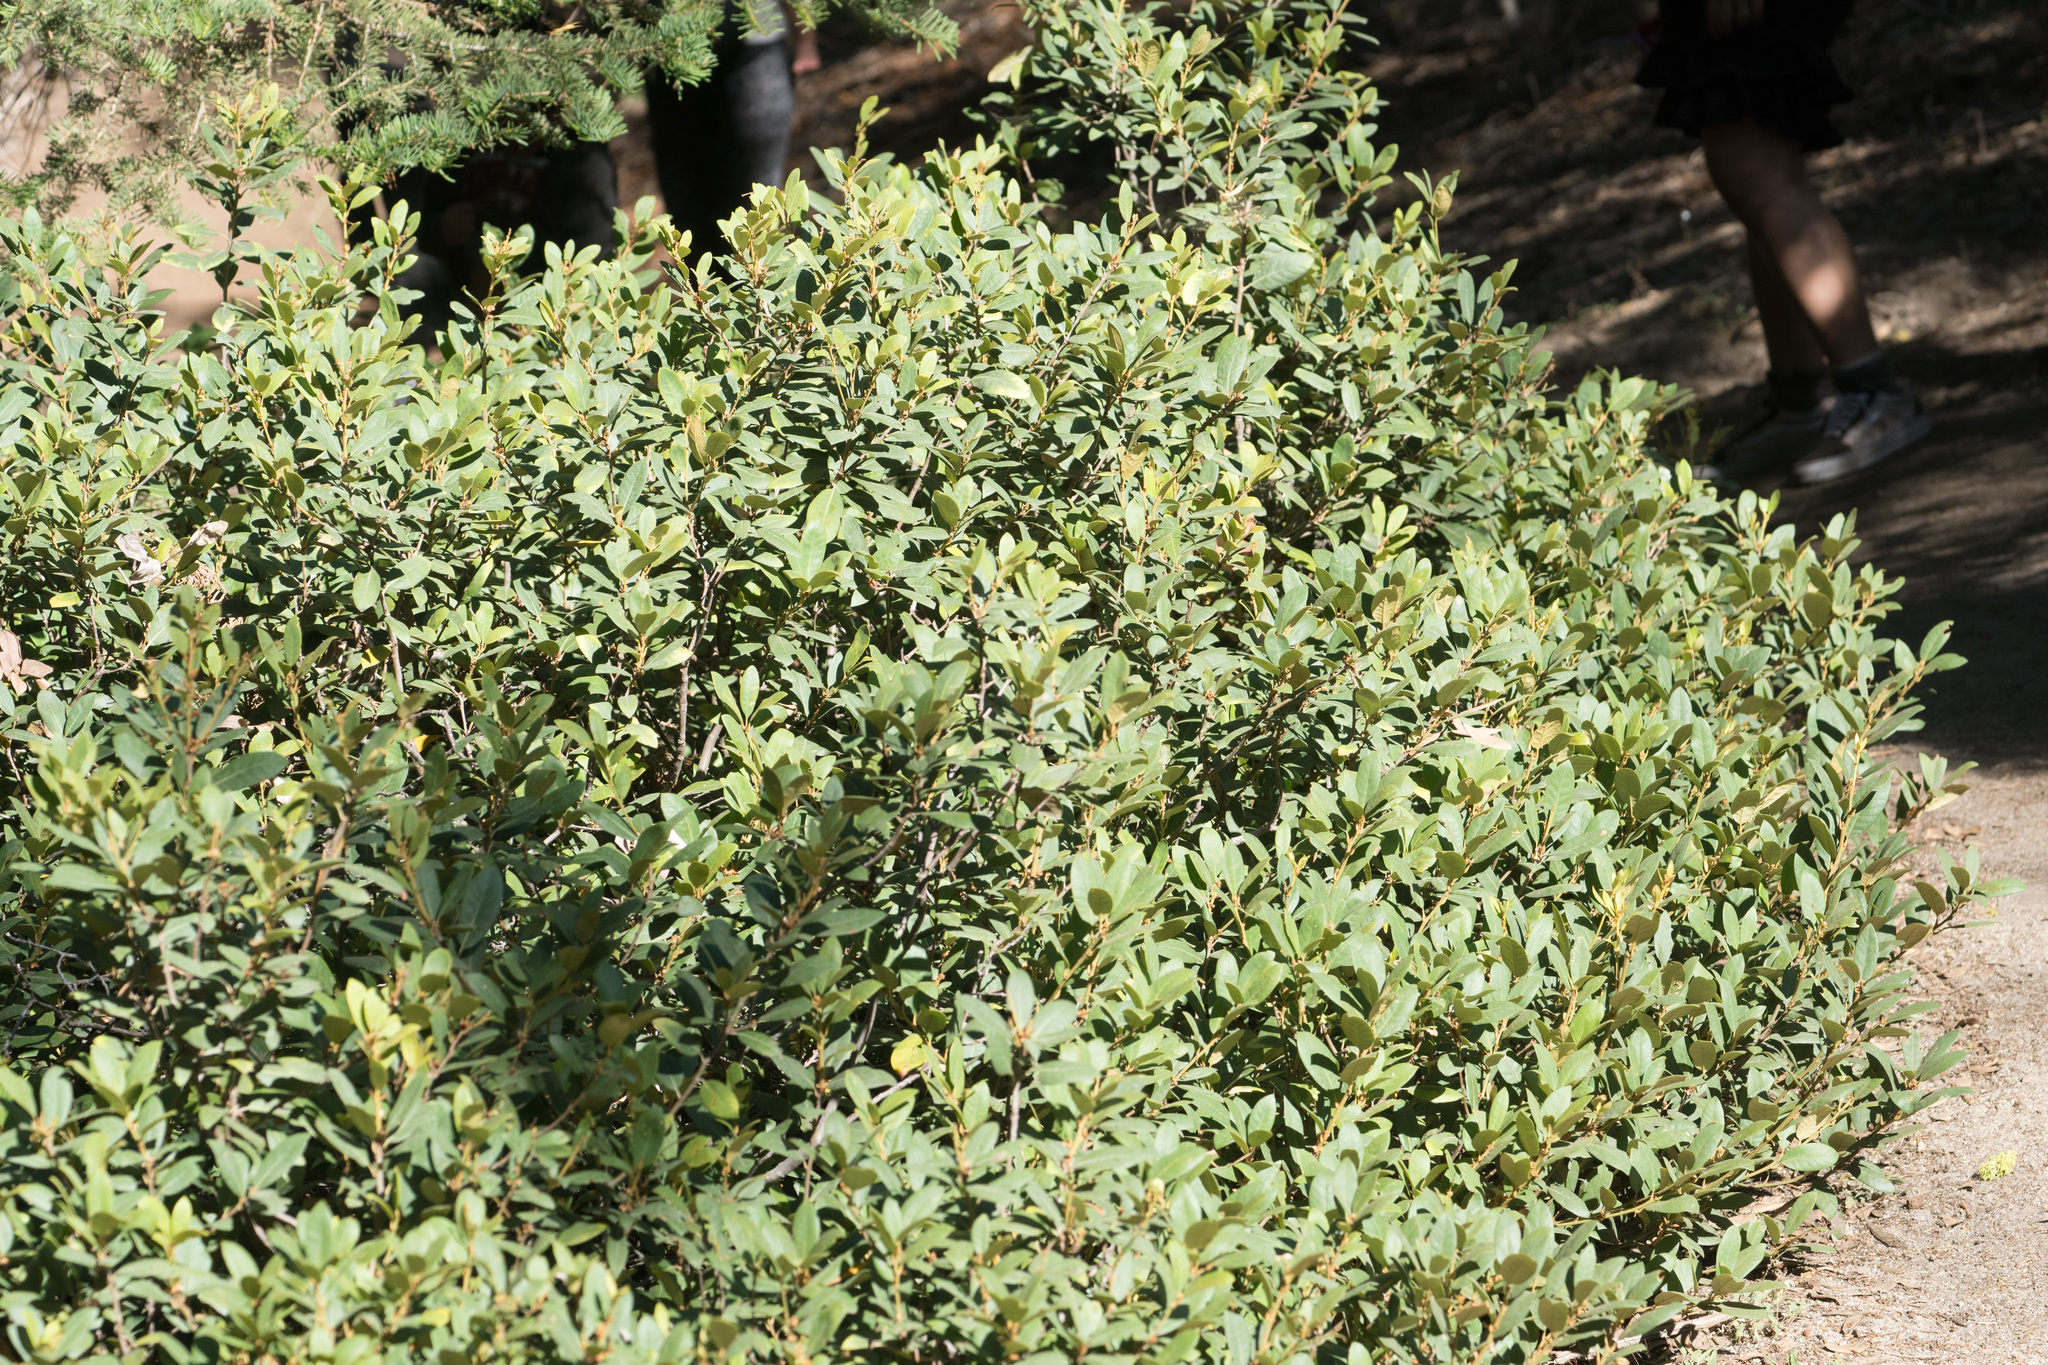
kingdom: Plantae
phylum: Tracheophyta
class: Magnoliopsida
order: Fagales
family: Fagaceae
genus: Chrysolepis
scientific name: Chrysolepis sempervirens
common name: Bush chinquapin
